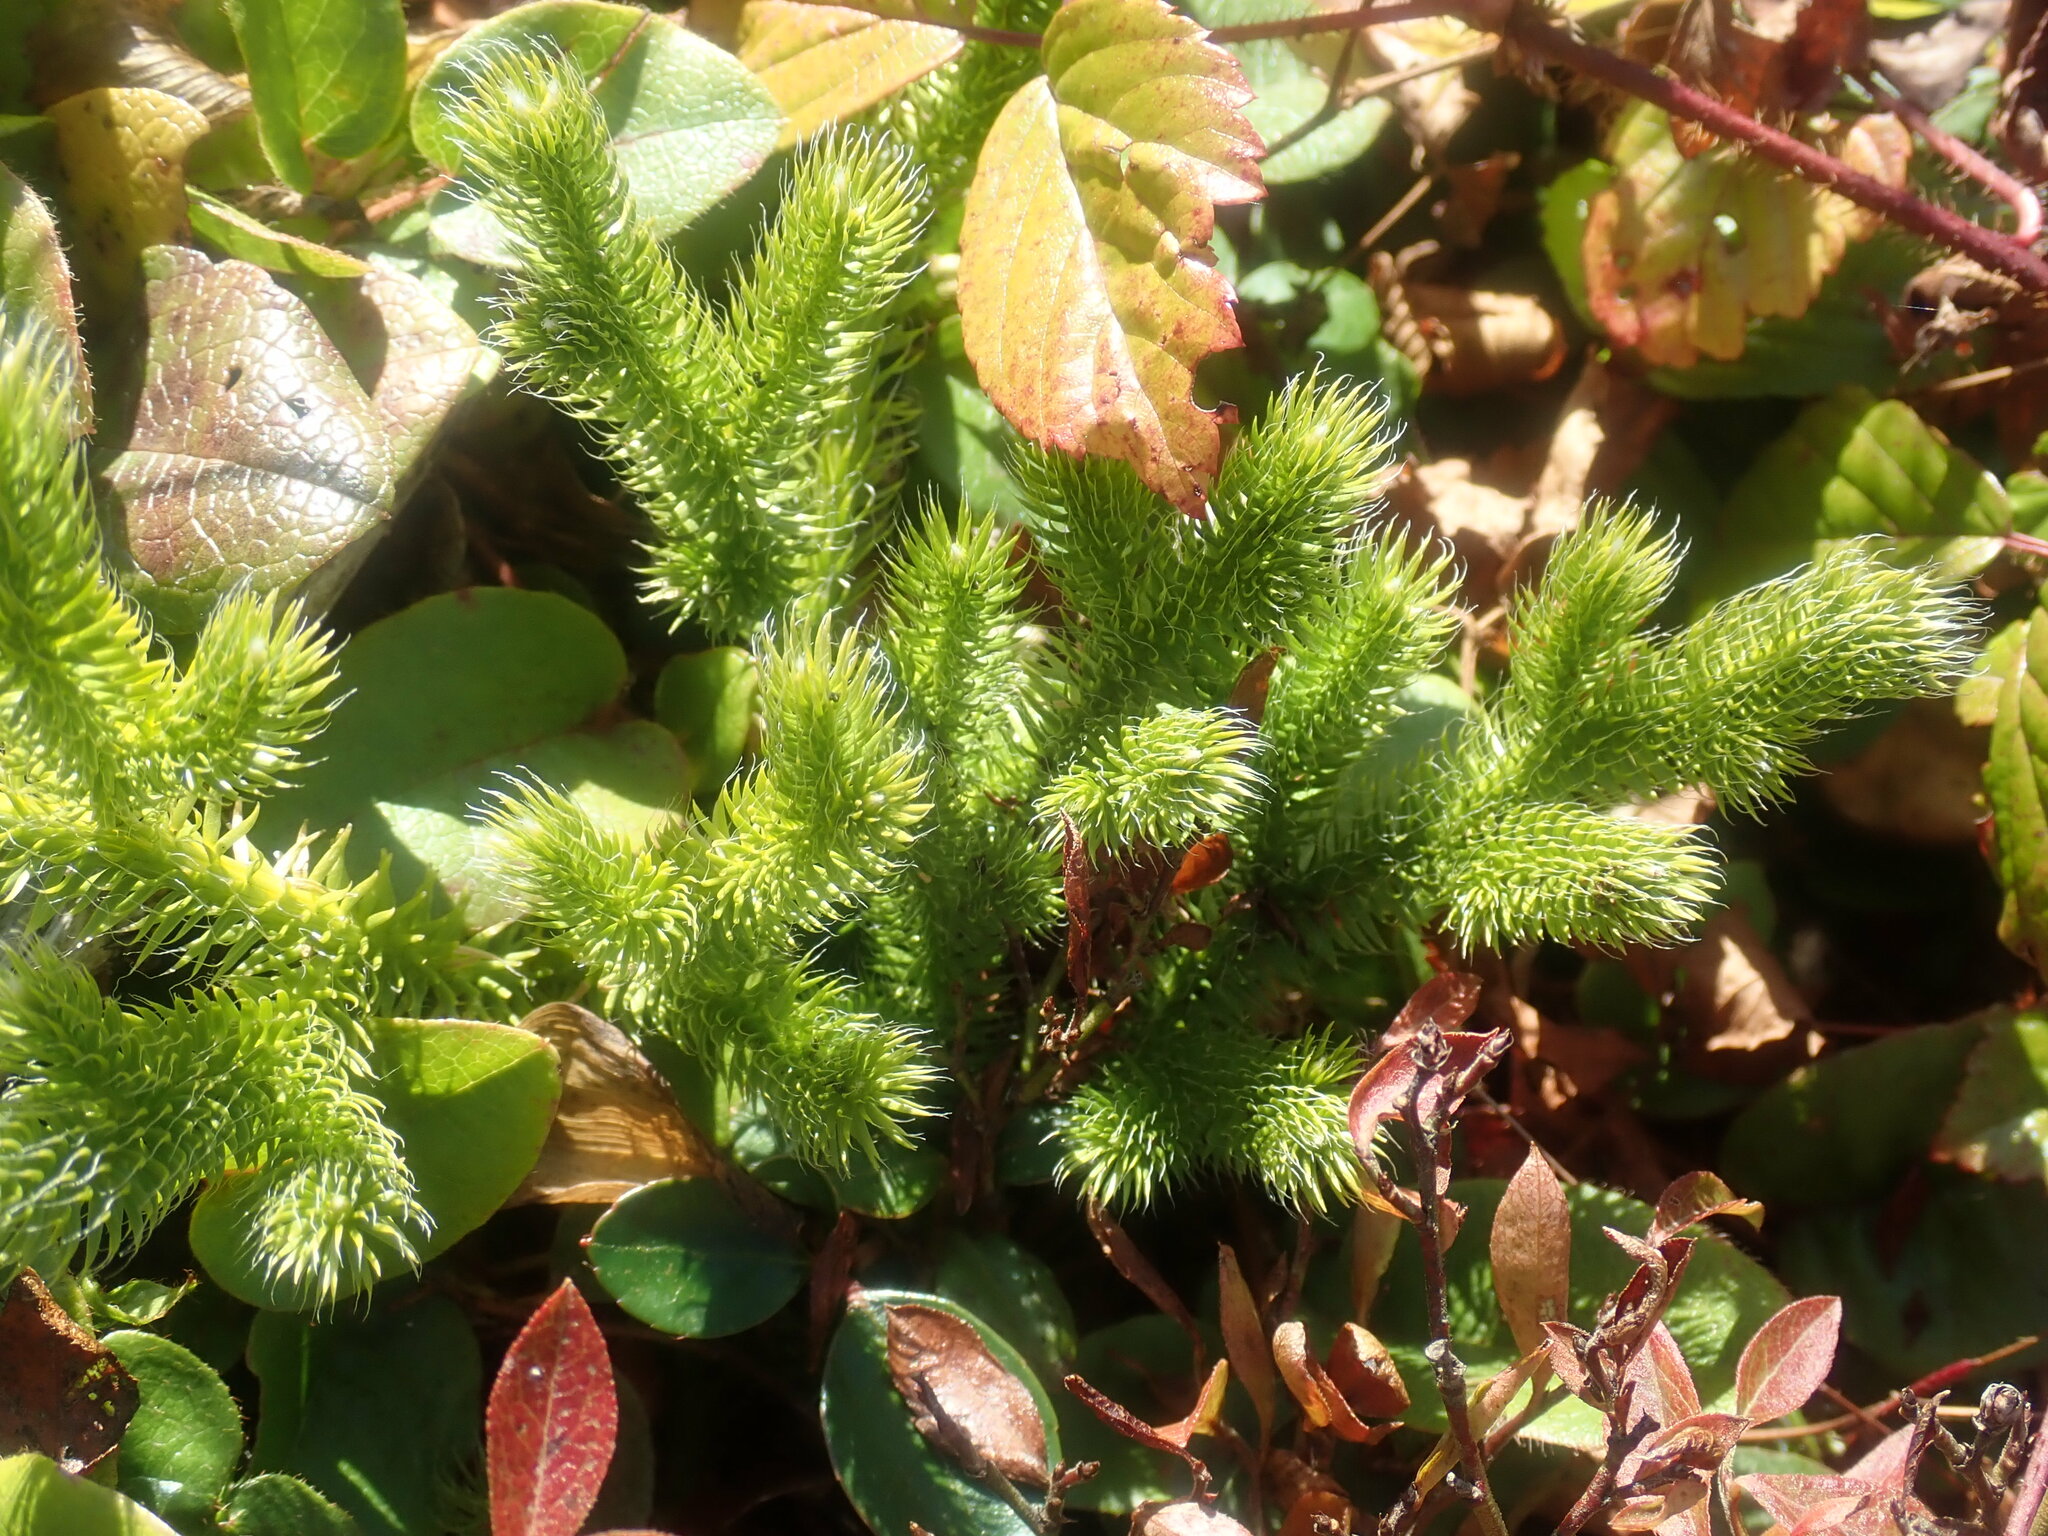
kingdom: Plantae
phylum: Tracheophyta
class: Lycopodiopsida
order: Lycopodiales
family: Lycopodiaceae
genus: Lycopodium
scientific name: Lycopodium clavatum
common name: Stag's-horn clubmoss
